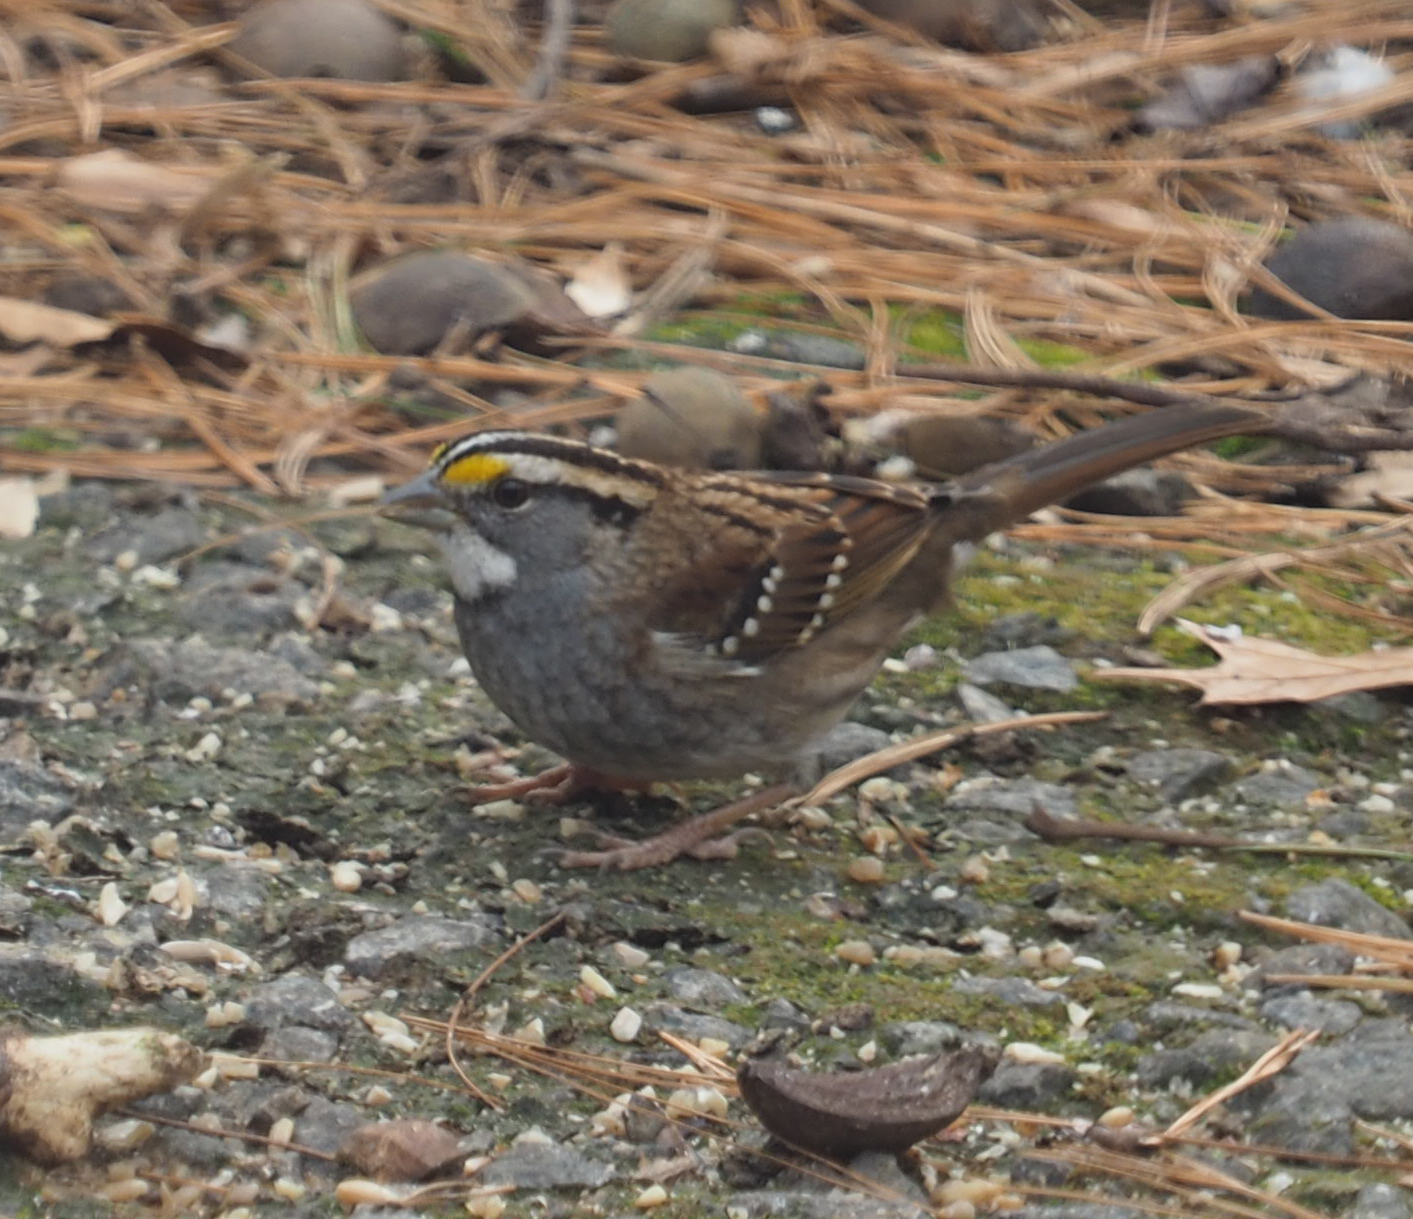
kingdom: Animalia
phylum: Chordata
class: Aves
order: Passeriformes
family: Passerellidae
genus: Zonotrichia
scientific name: Zonotrichia albicollis
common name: White-throated sparrow
